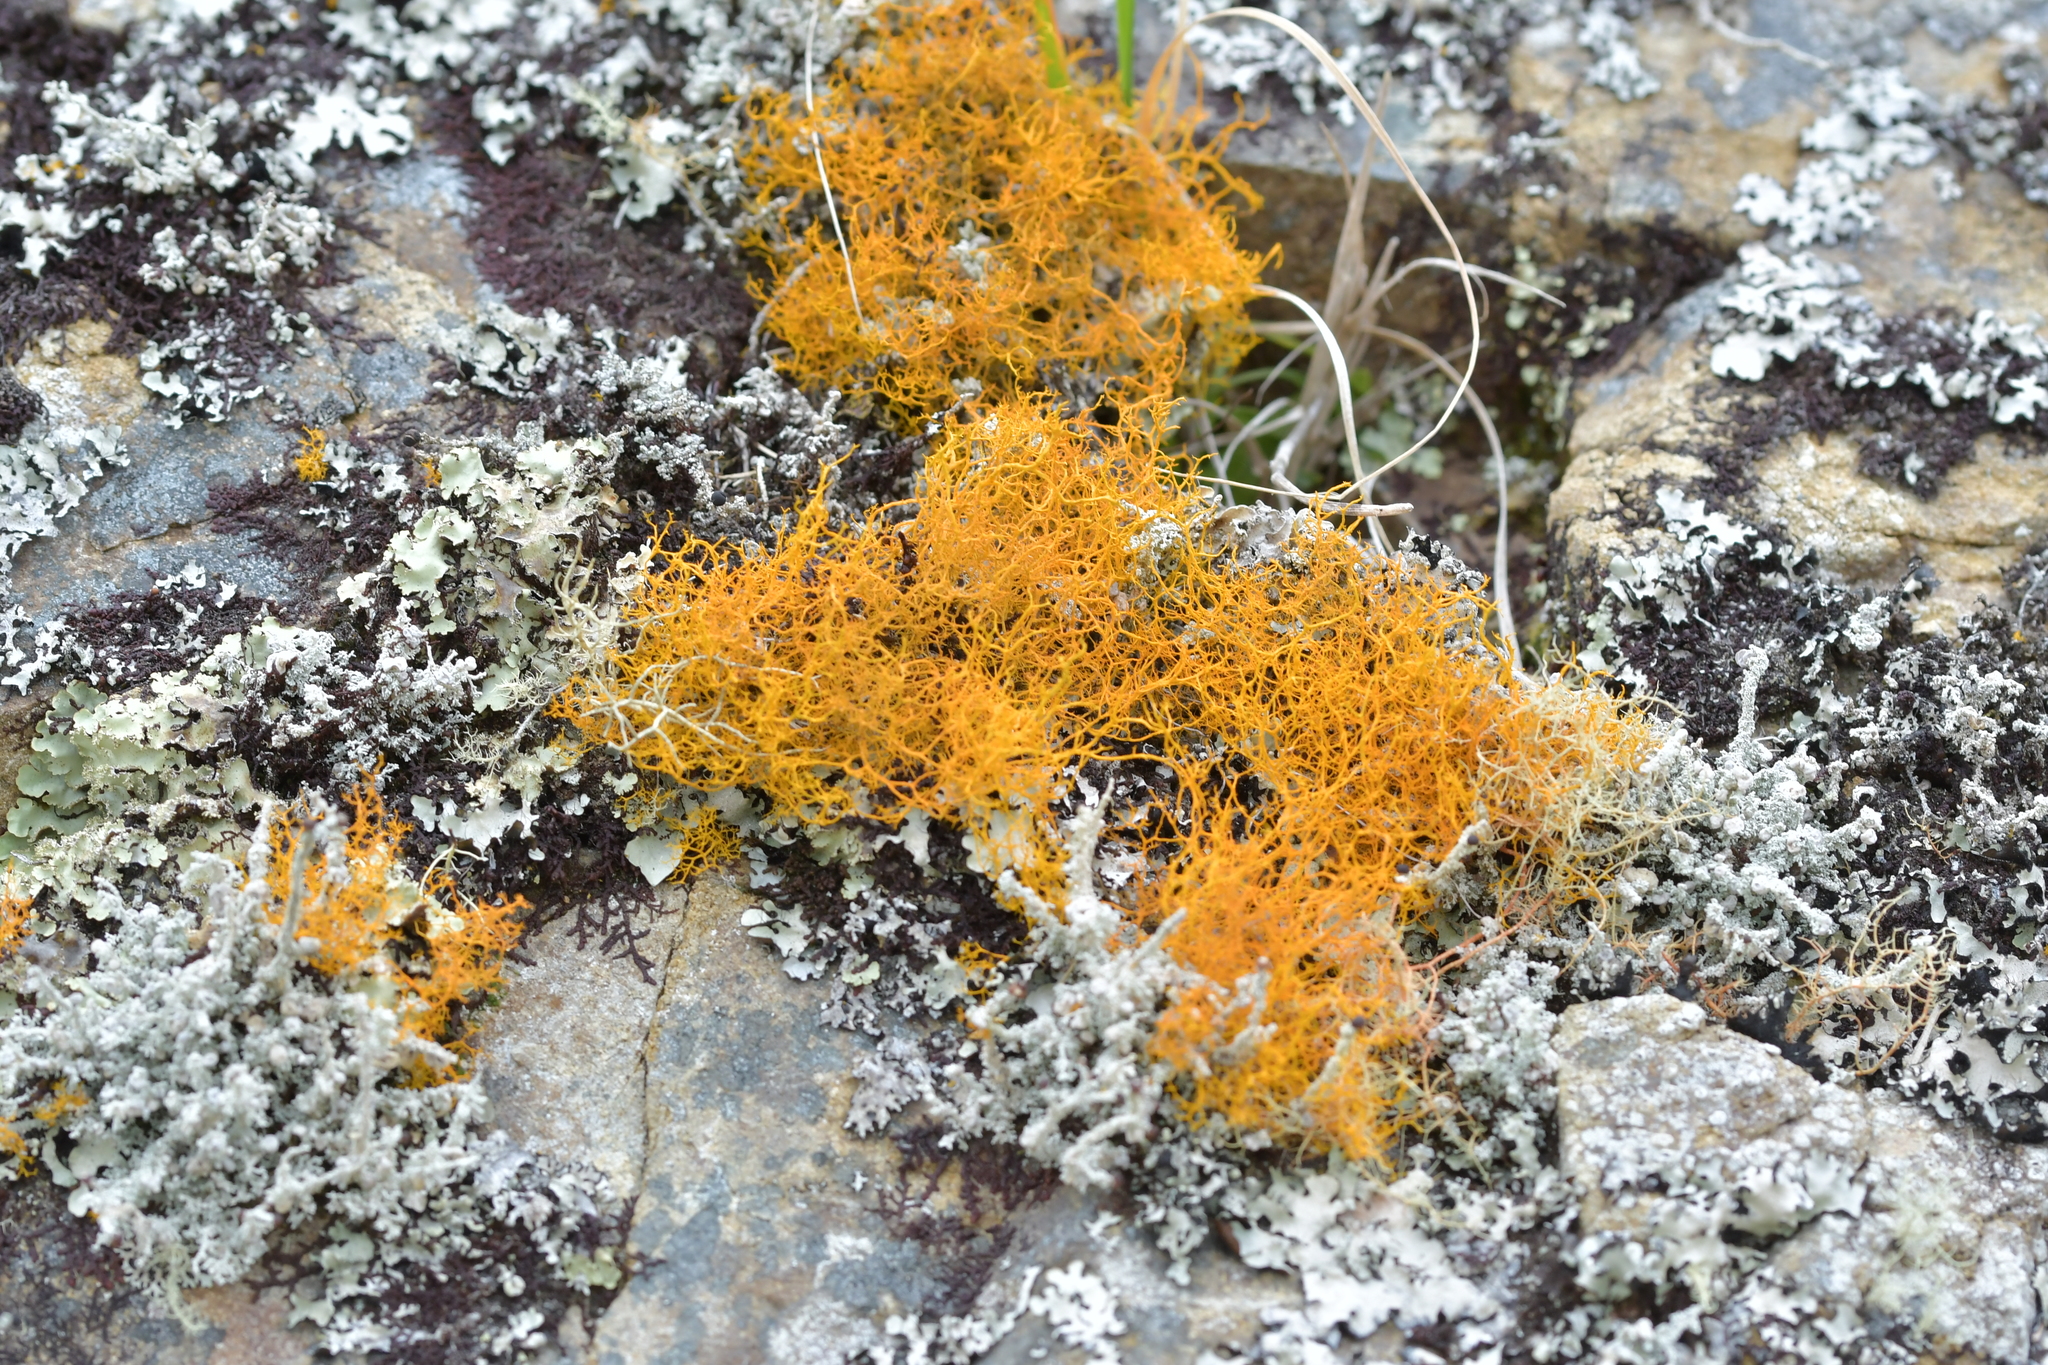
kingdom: Fungi
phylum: Ascomycota
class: Lecanoromycetes
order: Teloschistales
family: Teloschistaceae
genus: Teloschistes
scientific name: Teloschistes flavicans
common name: Golden hair-lichen
